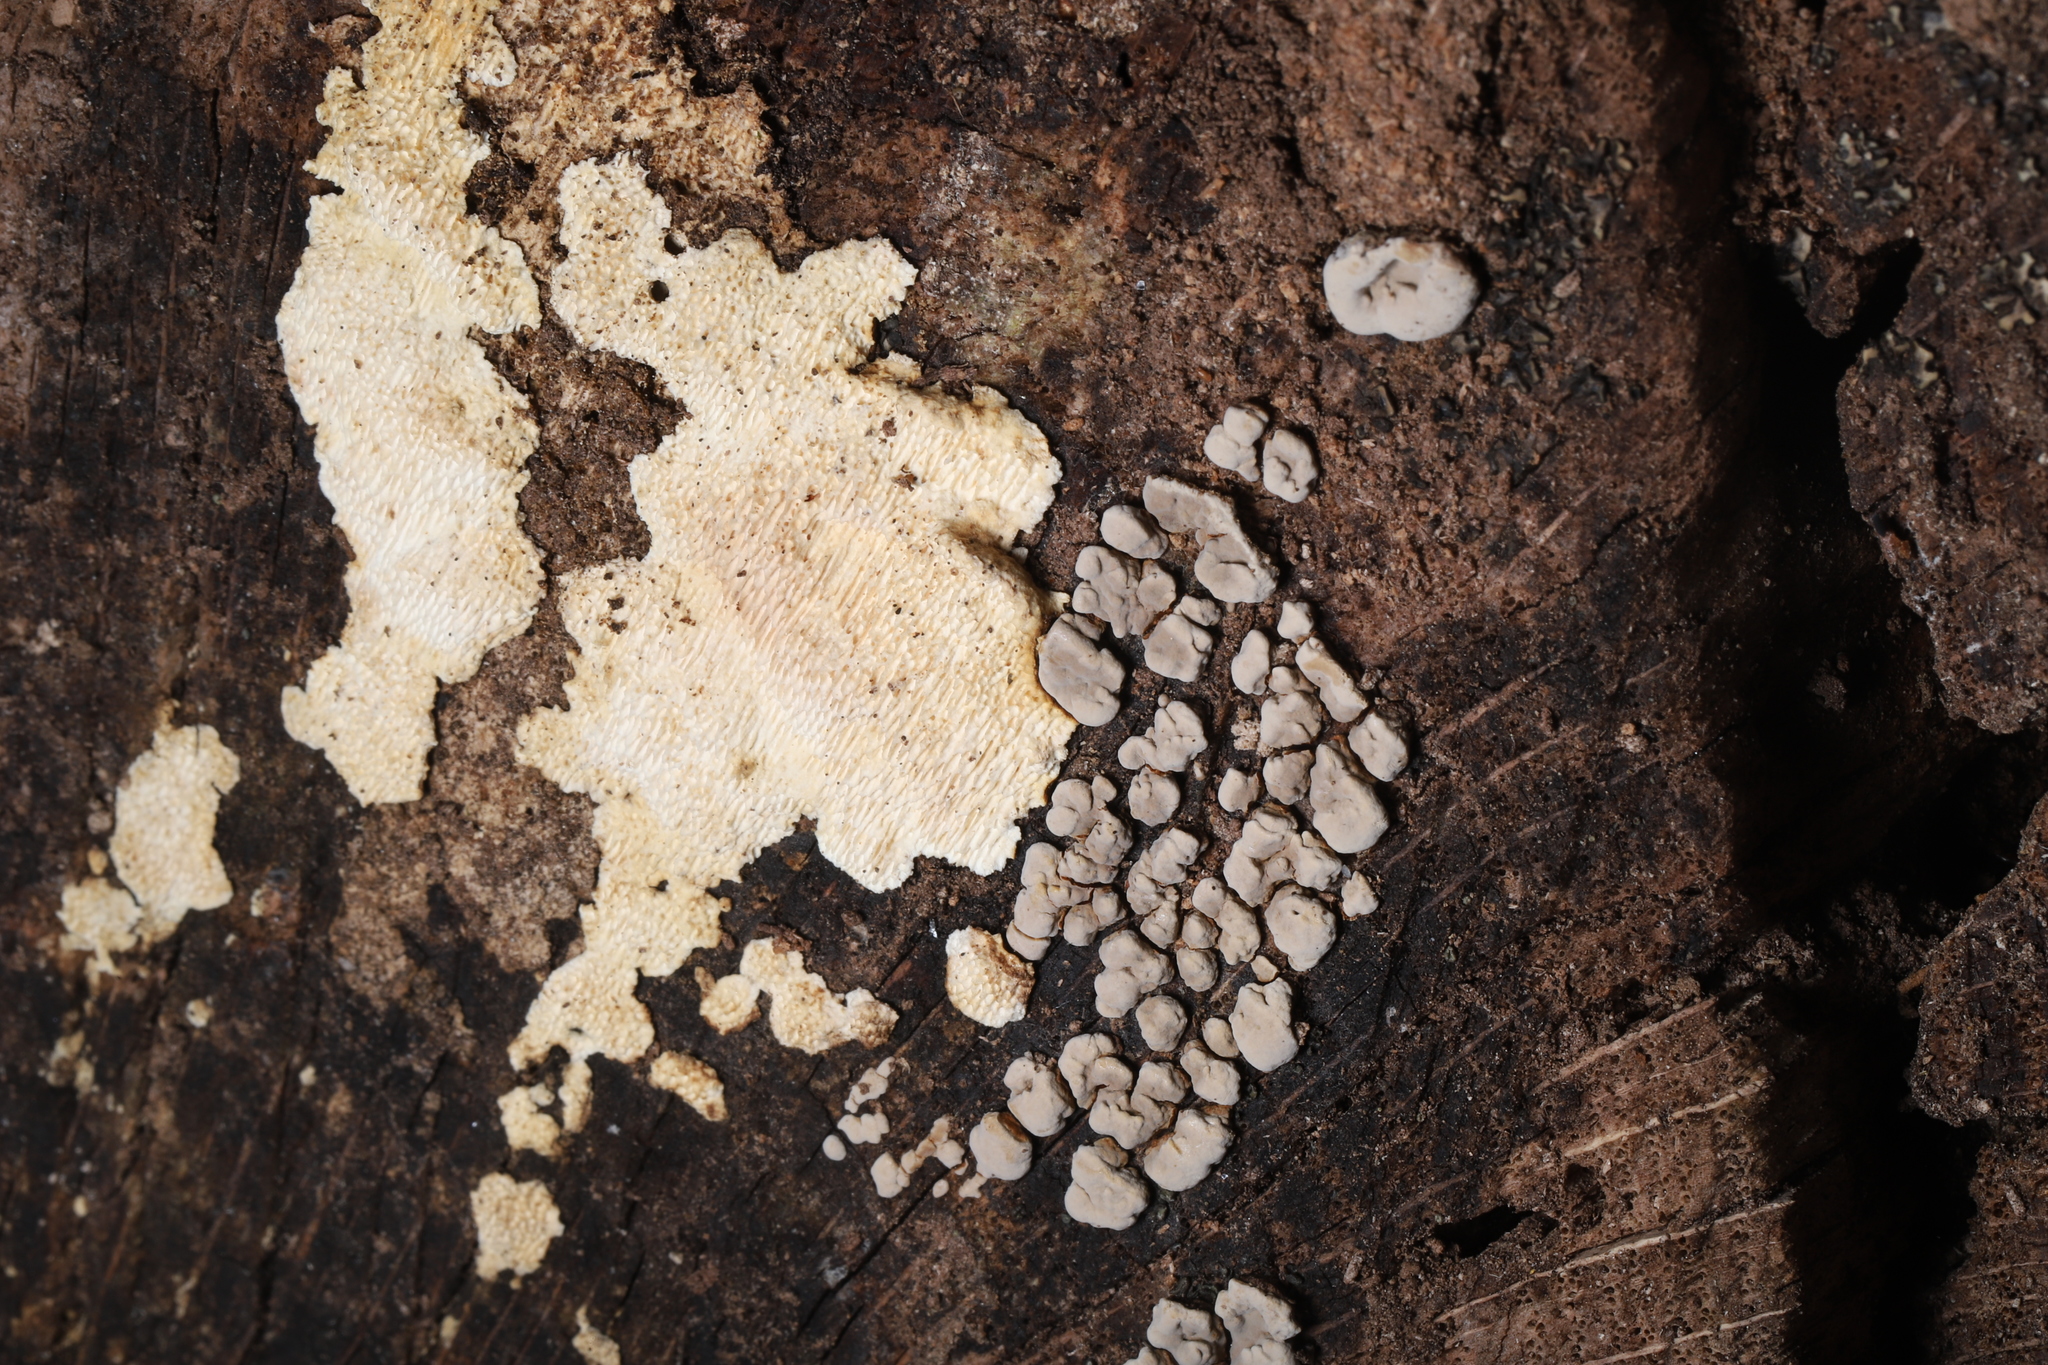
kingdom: Fungi
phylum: Basidiomycota
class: Agaricomycetes
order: Russulales
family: Stereaceae
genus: Xylobolus
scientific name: Xylobolus frustulatus
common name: Ceramic parchment
